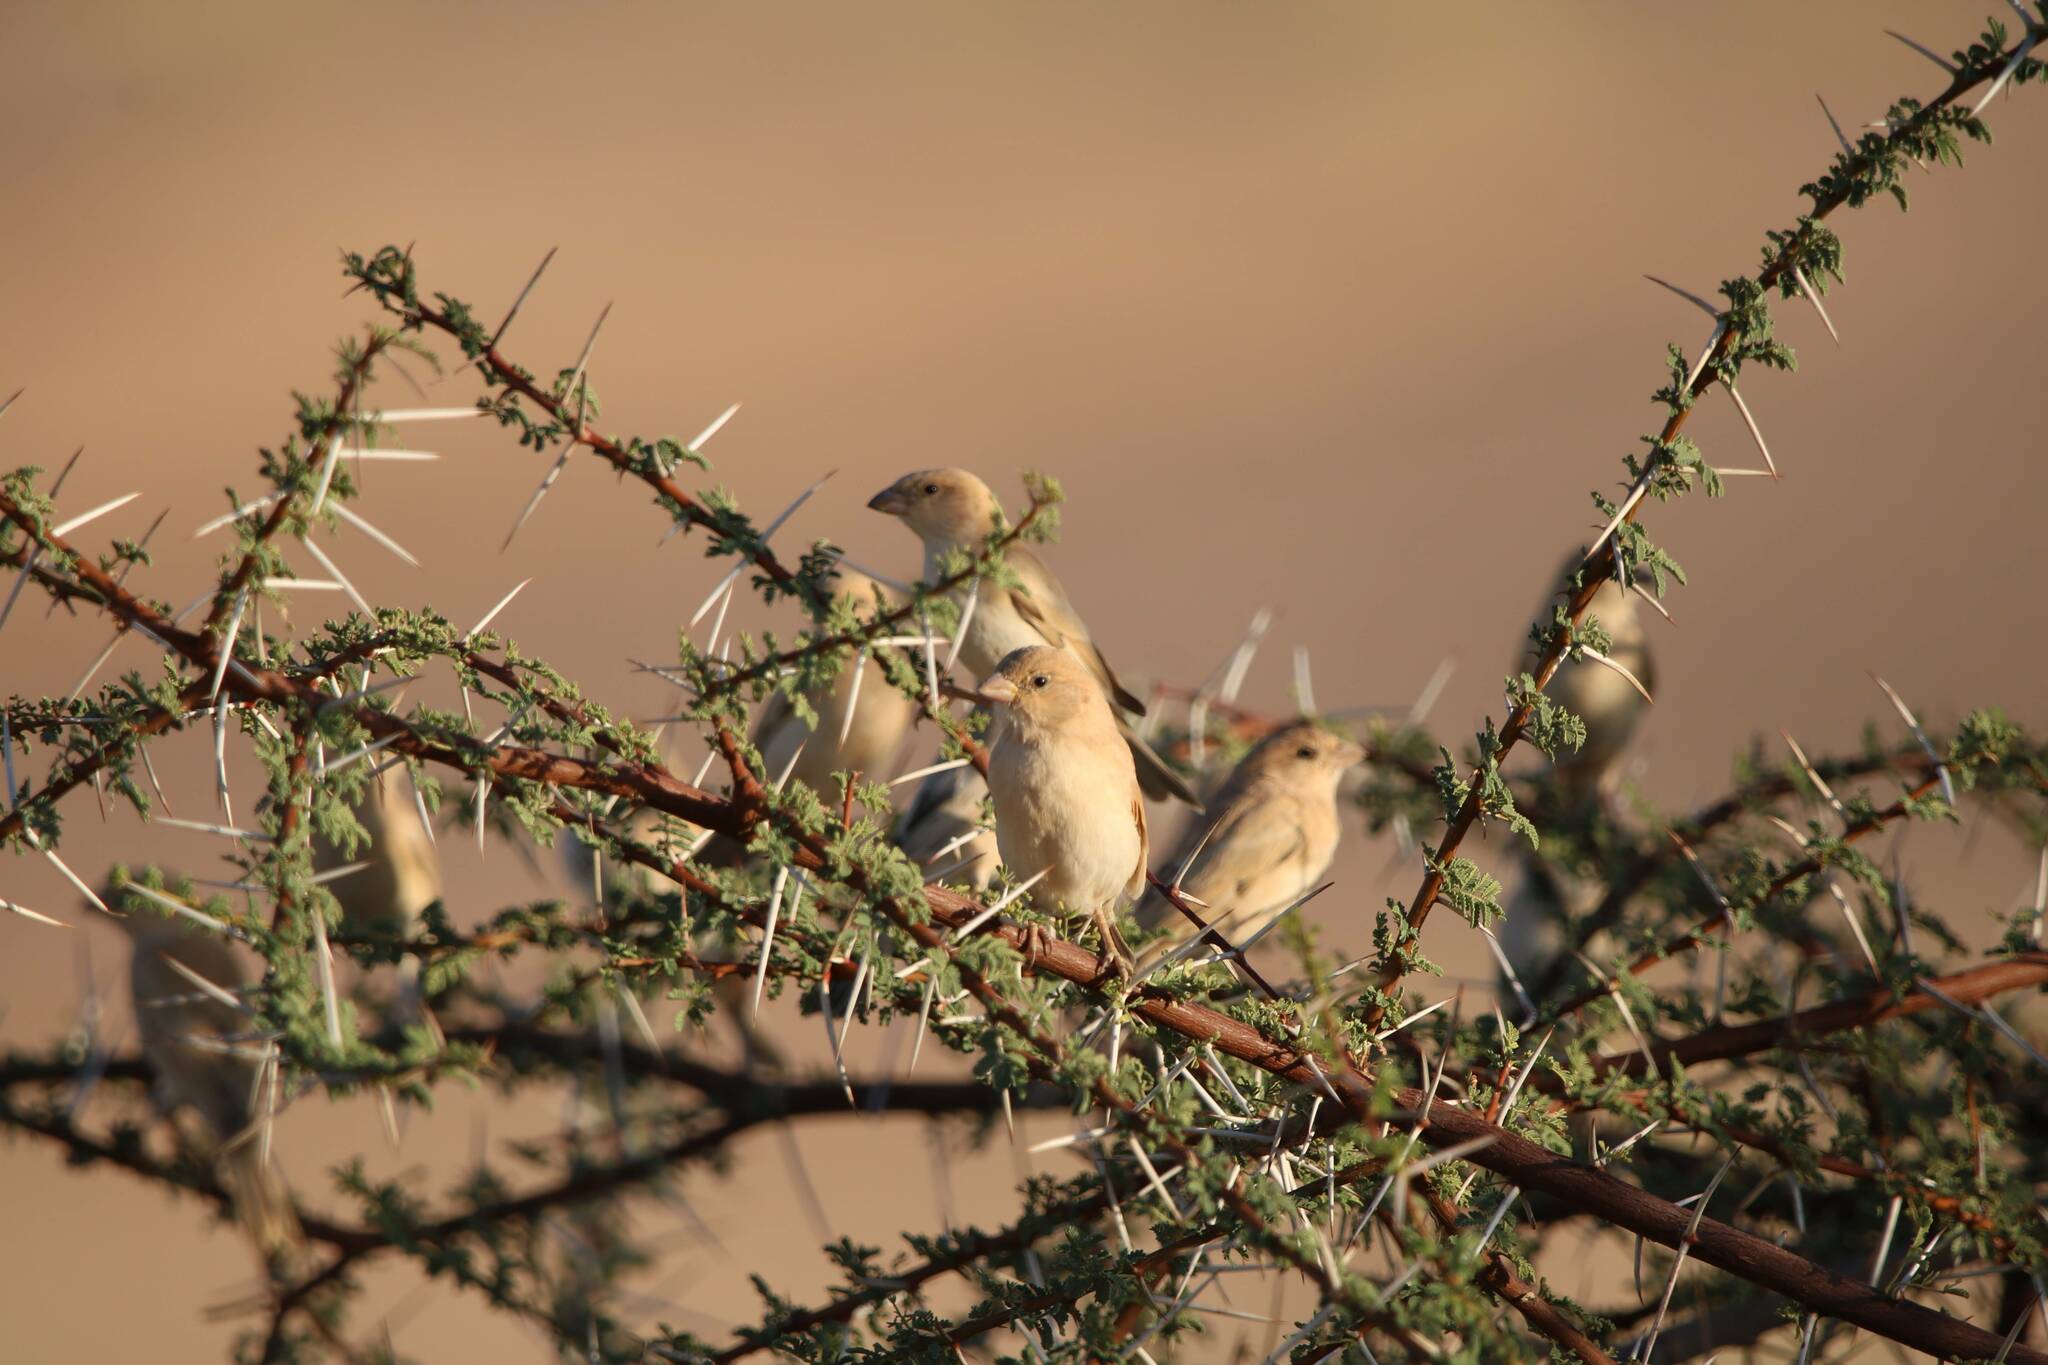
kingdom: Animalia
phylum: Chordata
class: Aves
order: Passeriformes
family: Passeridae
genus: Passer
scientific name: Passer simplex
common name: Desert sparrow
